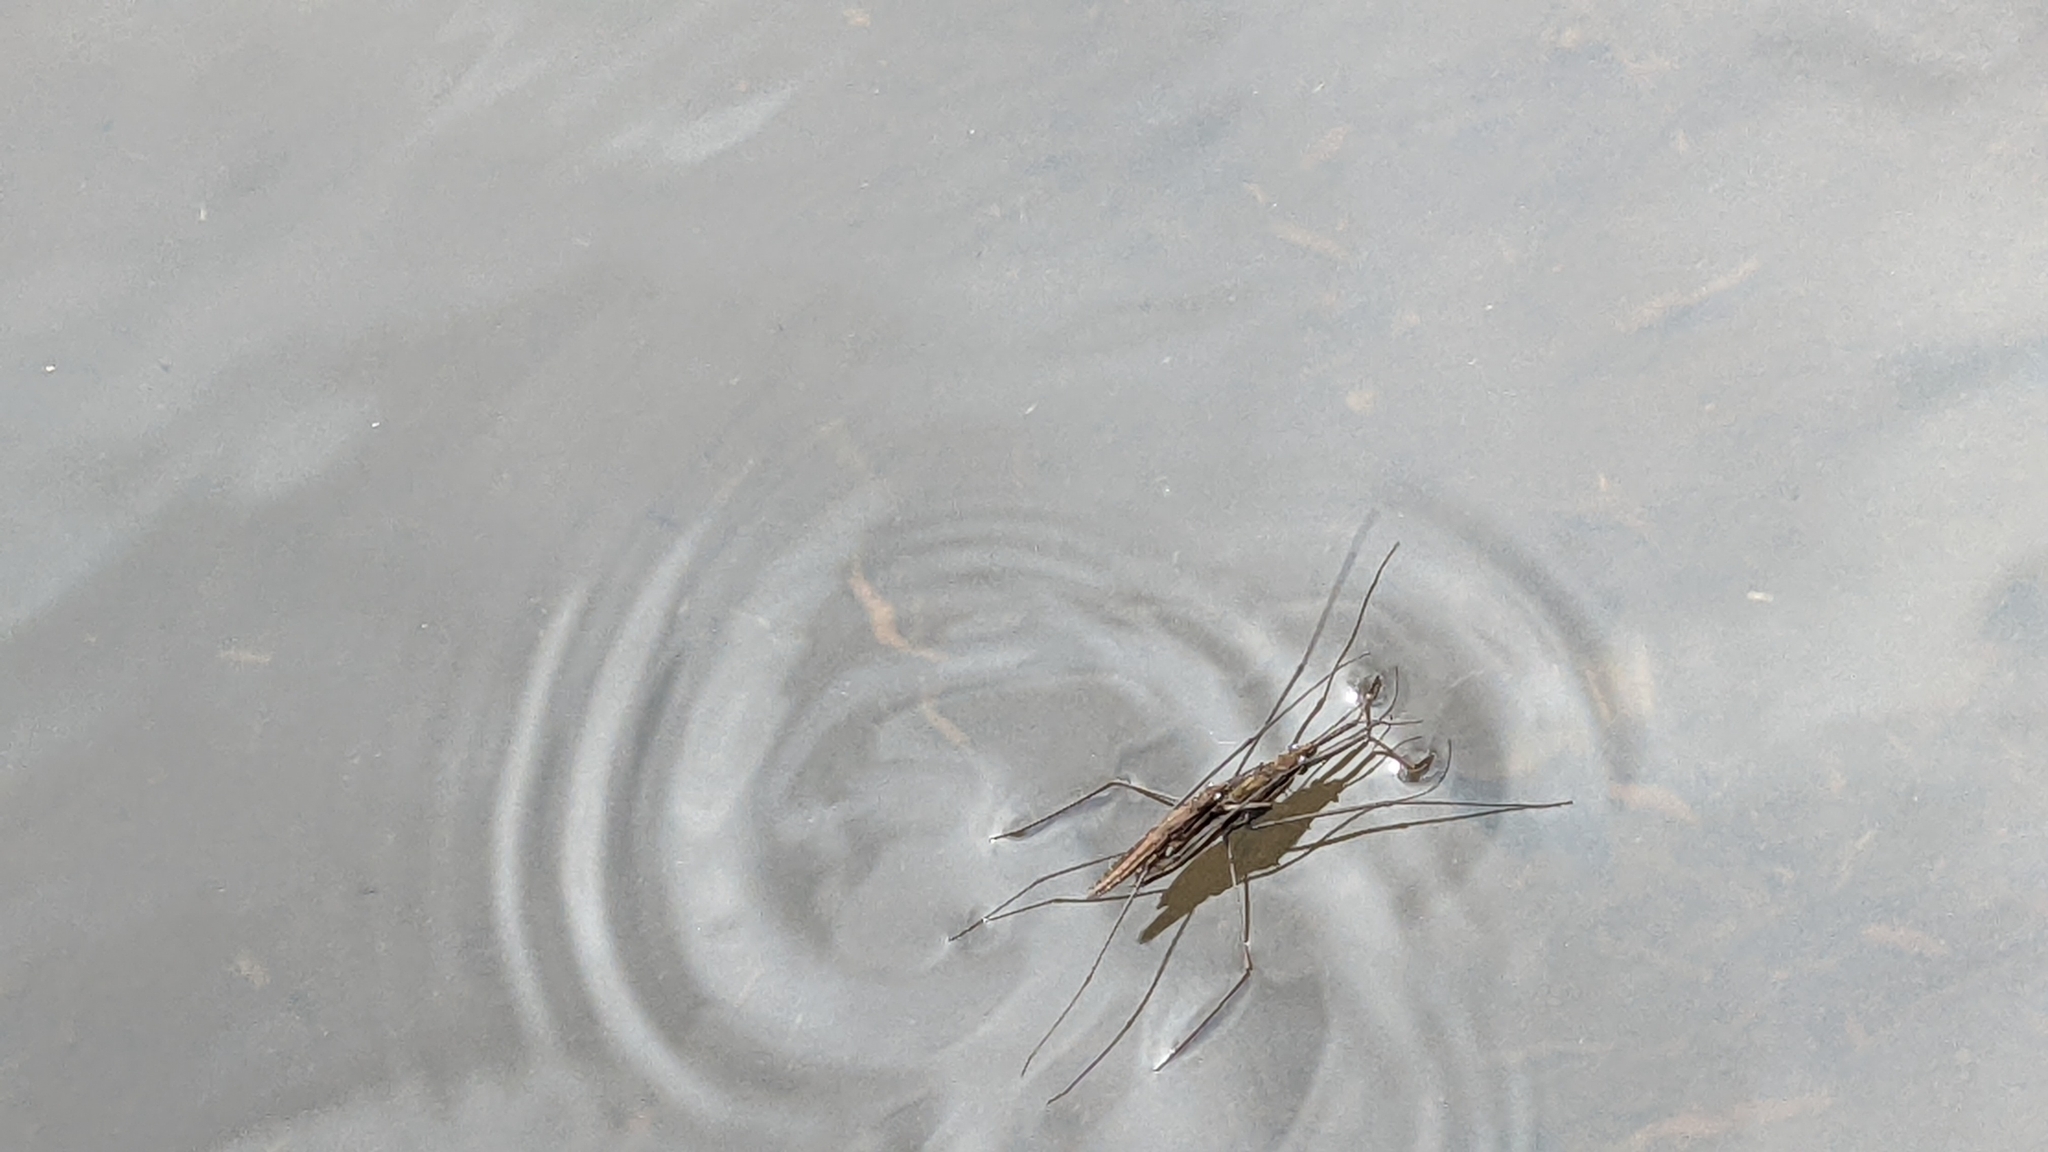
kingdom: Animalia
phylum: Arthropoda
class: Insecta
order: Hemiptera
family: Gerridae
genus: Aquarius
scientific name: Aquarius najas
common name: River skater
